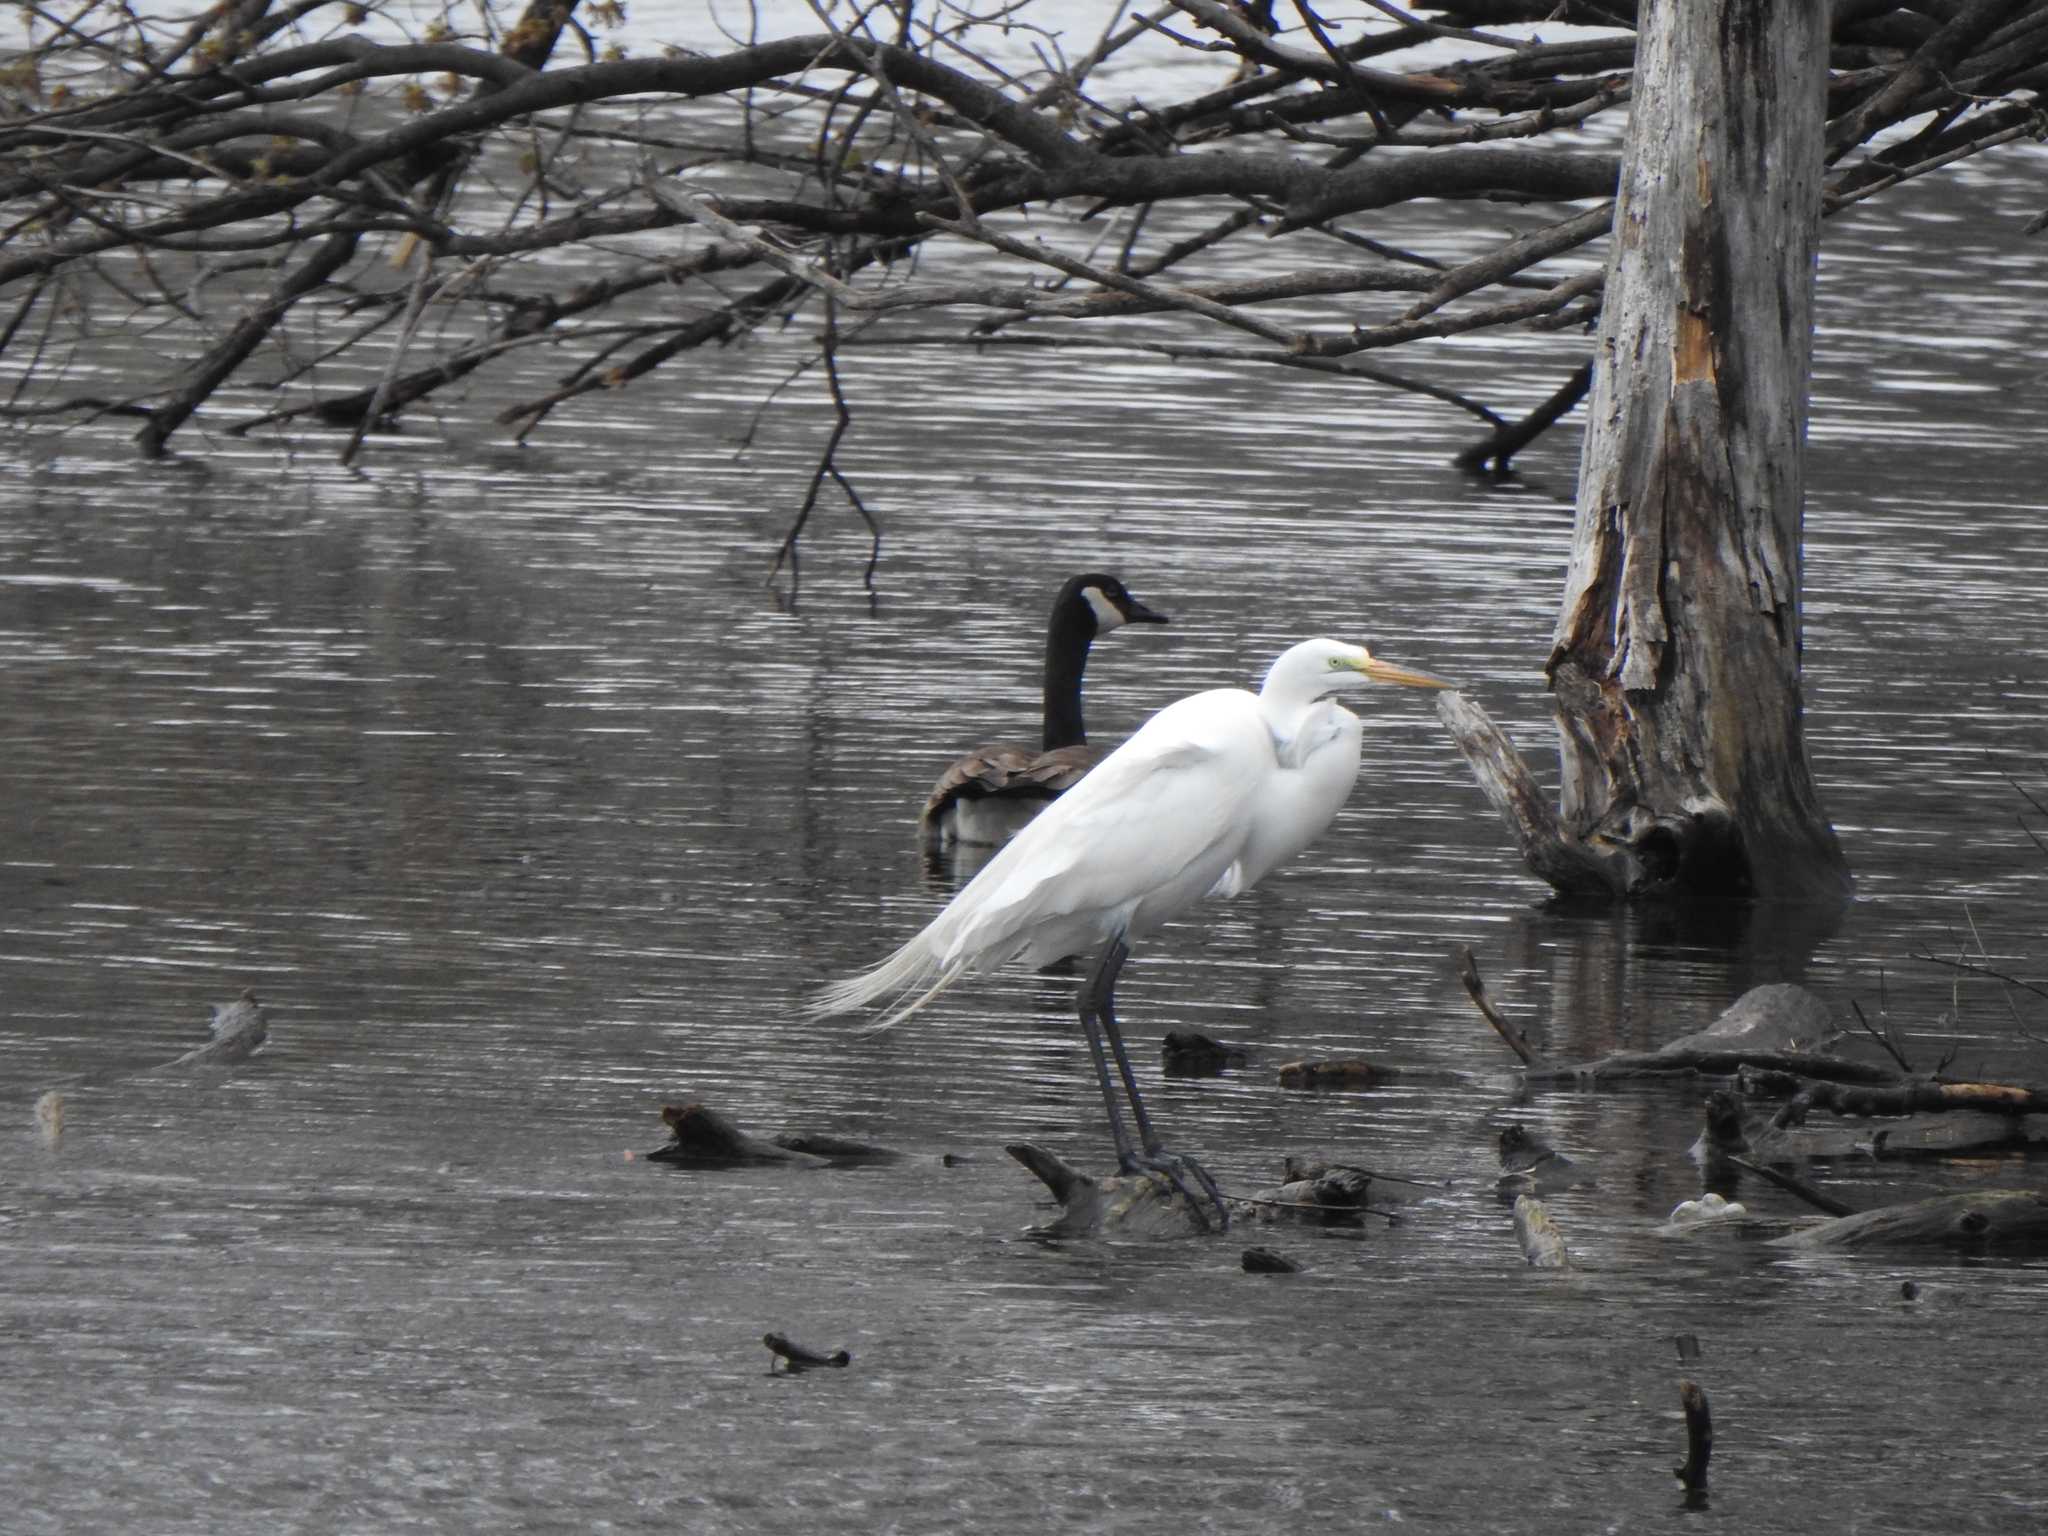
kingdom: Animalia
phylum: Chordata
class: Aves
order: Pelecaniformes
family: Ardeidae
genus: Ardea
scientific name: Ardea alba
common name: Great egret
